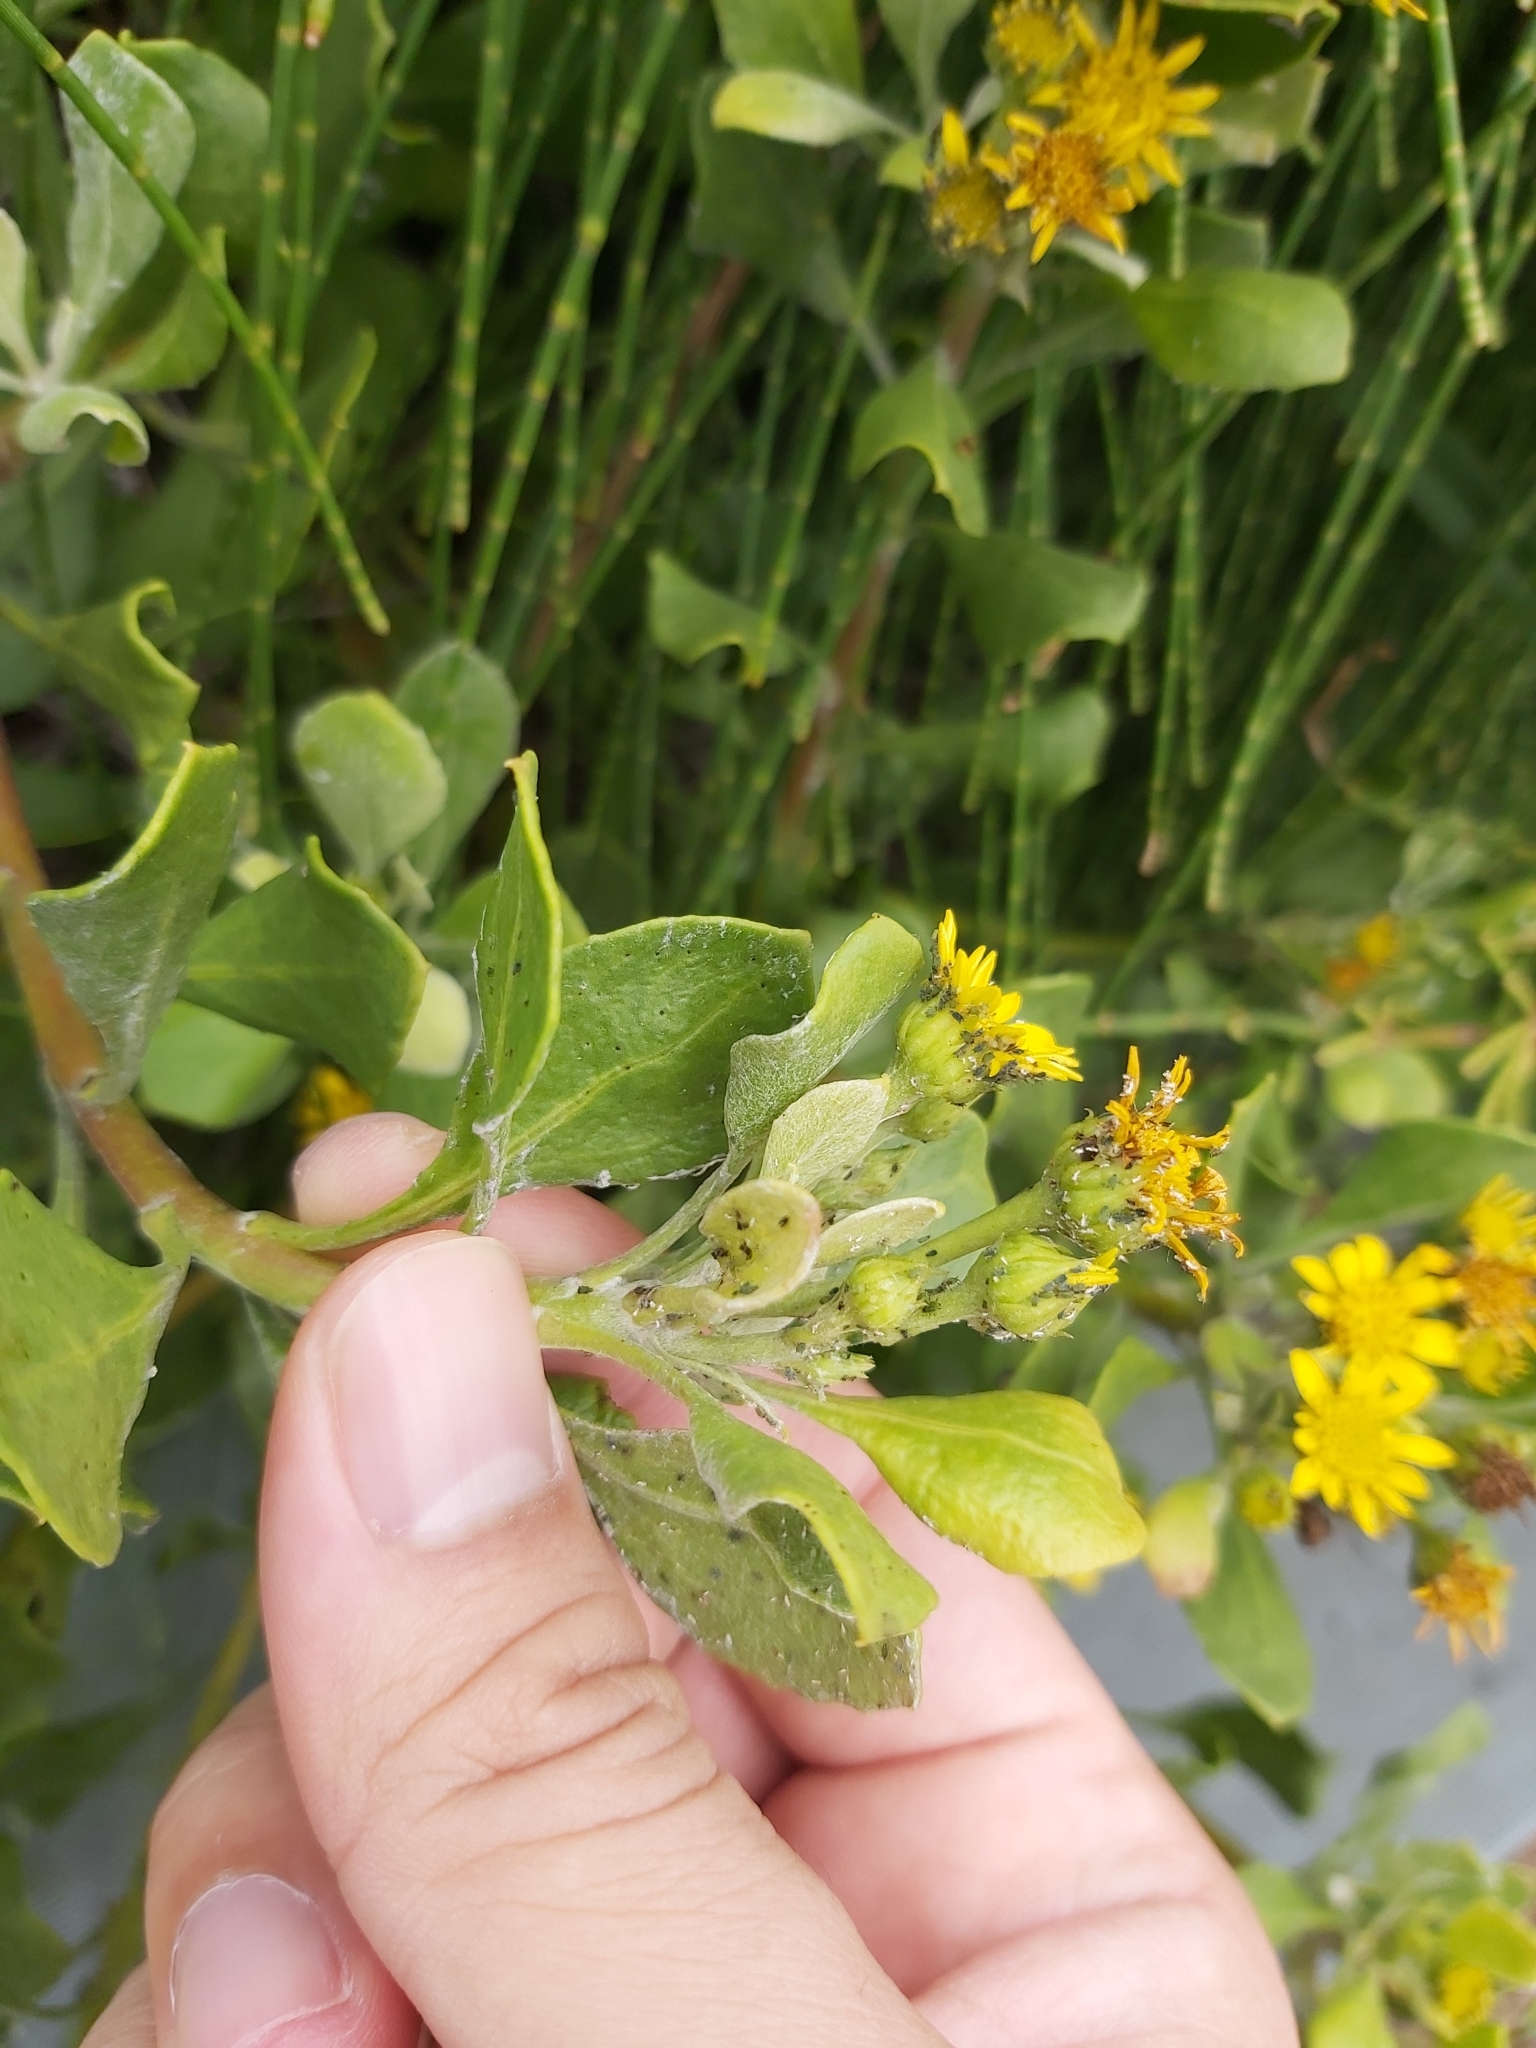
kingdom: Plantae
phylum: Tracheophyta
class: Magnoliopsida
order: Asterales
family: Asteraceae
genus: Osteospermum
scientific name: Osteospermum moniliferum
